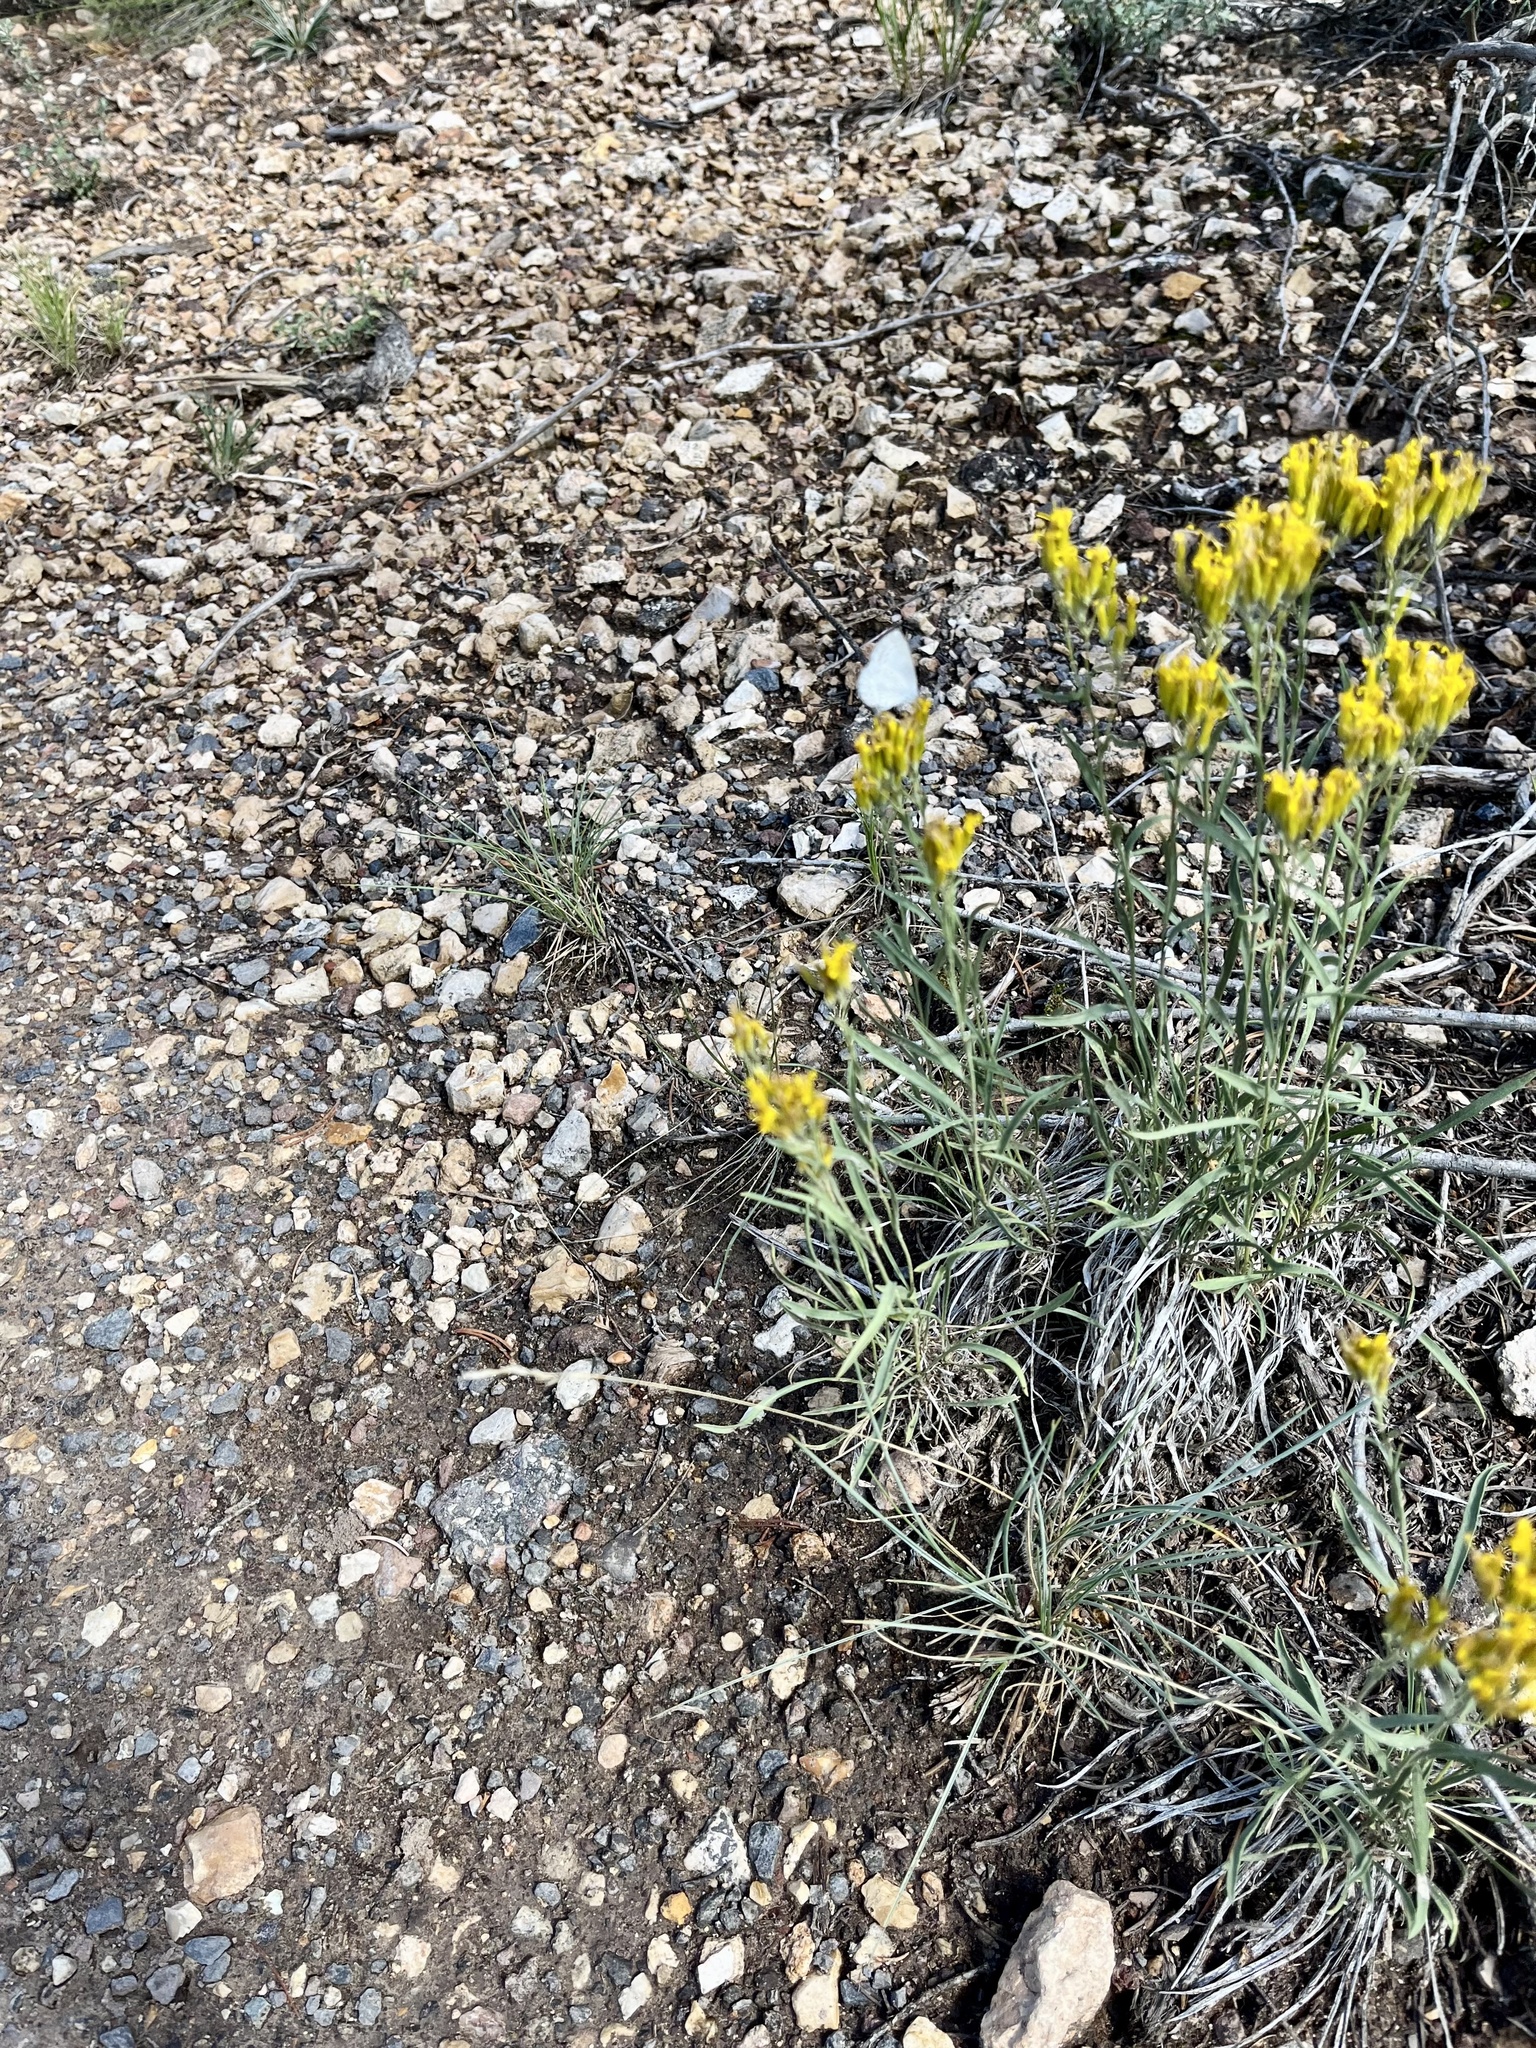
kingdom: Plantae
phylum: Tracheophyta
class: Magnoliopsida
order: Asterales
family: Asteraceae
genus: Petradoria
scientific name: Petradoria pumila
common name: Rock-goldenrod
